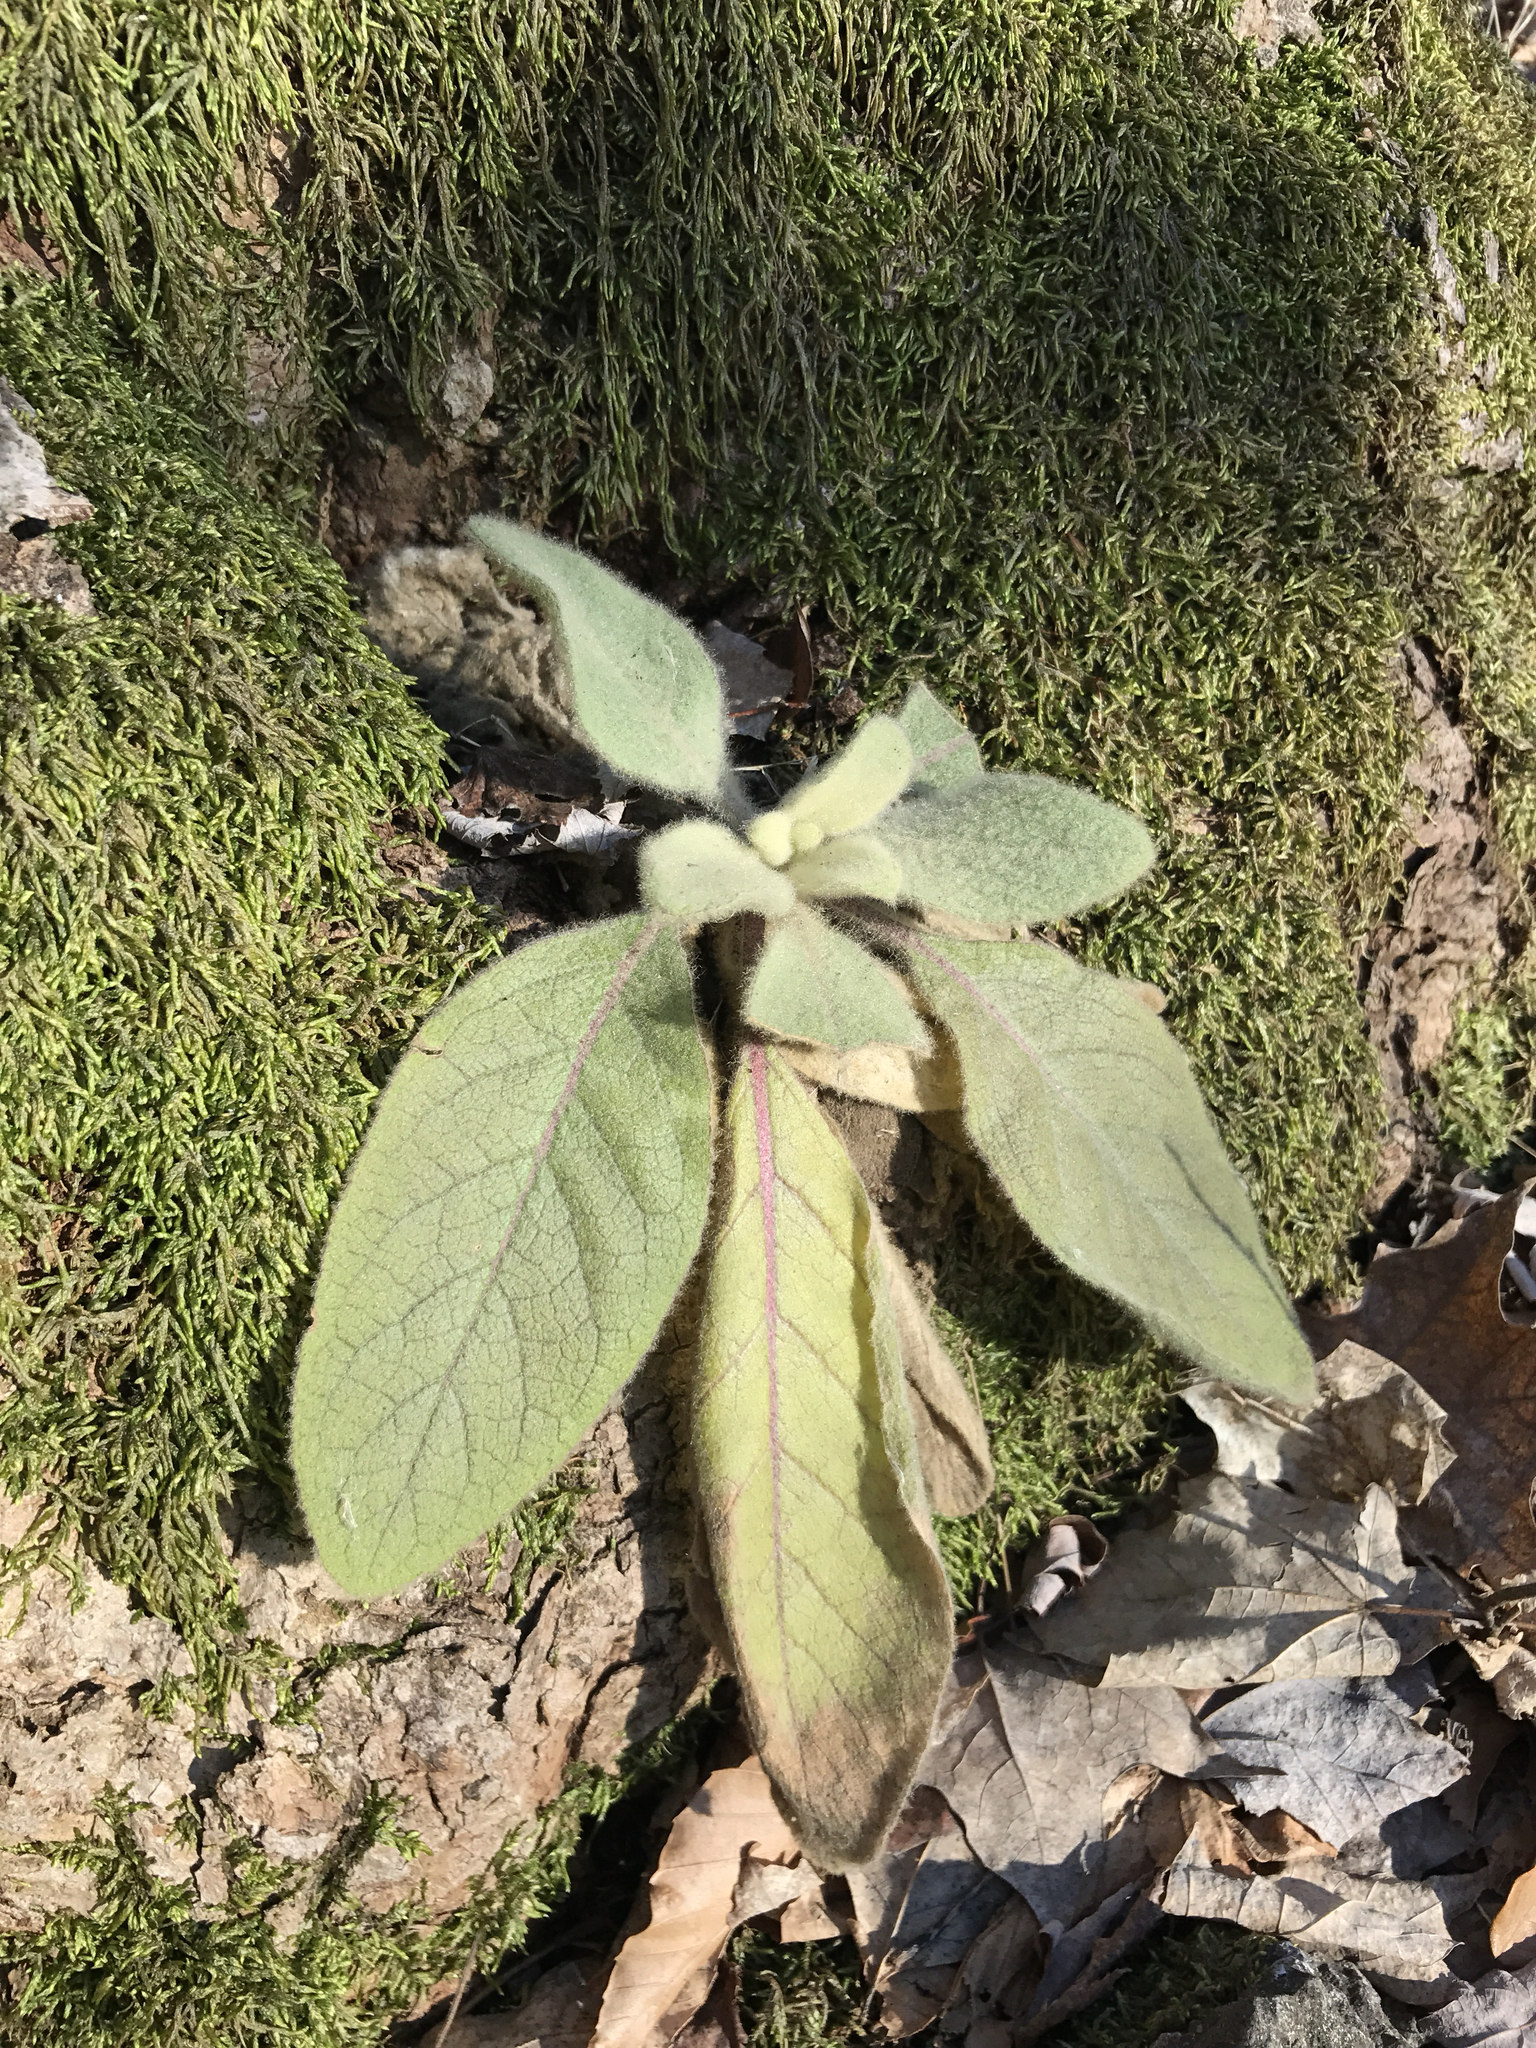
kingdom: Plantae
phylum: Tracheophyta
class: Magnoliopsida
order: Lamiales
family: Scrophulariaceae
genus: Verbascum
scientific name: Verbascum thapsus
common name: Common mullein
